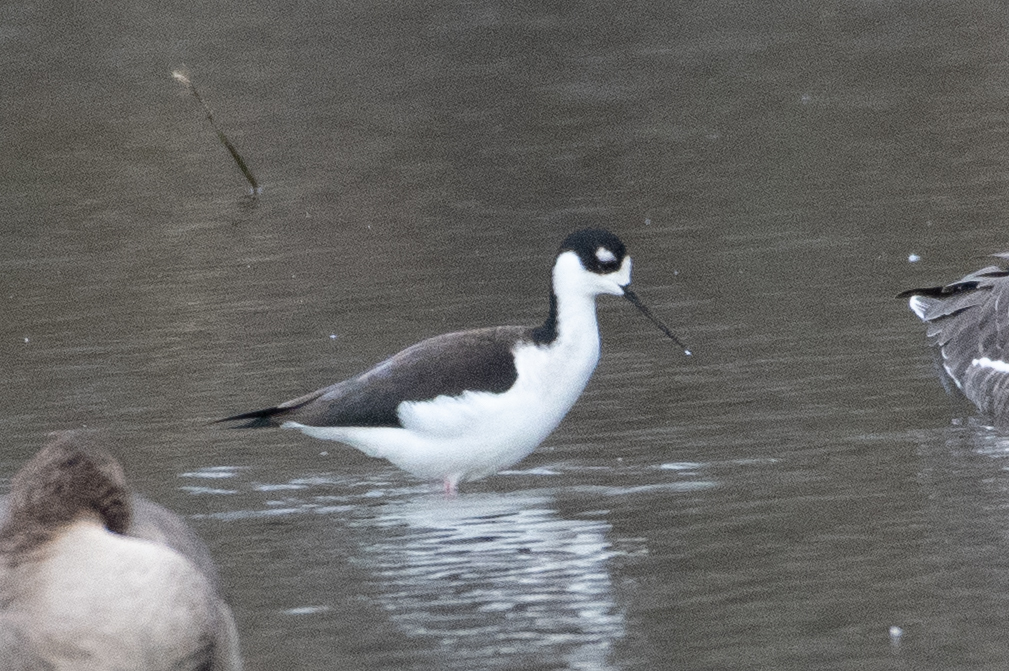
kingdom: Animalia
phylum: Chordata
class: Aves
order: Charadriiformes
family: Recurvirostridae
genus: Himantopus
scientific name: Himantopus mexicanus
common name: Black-necked stilt
